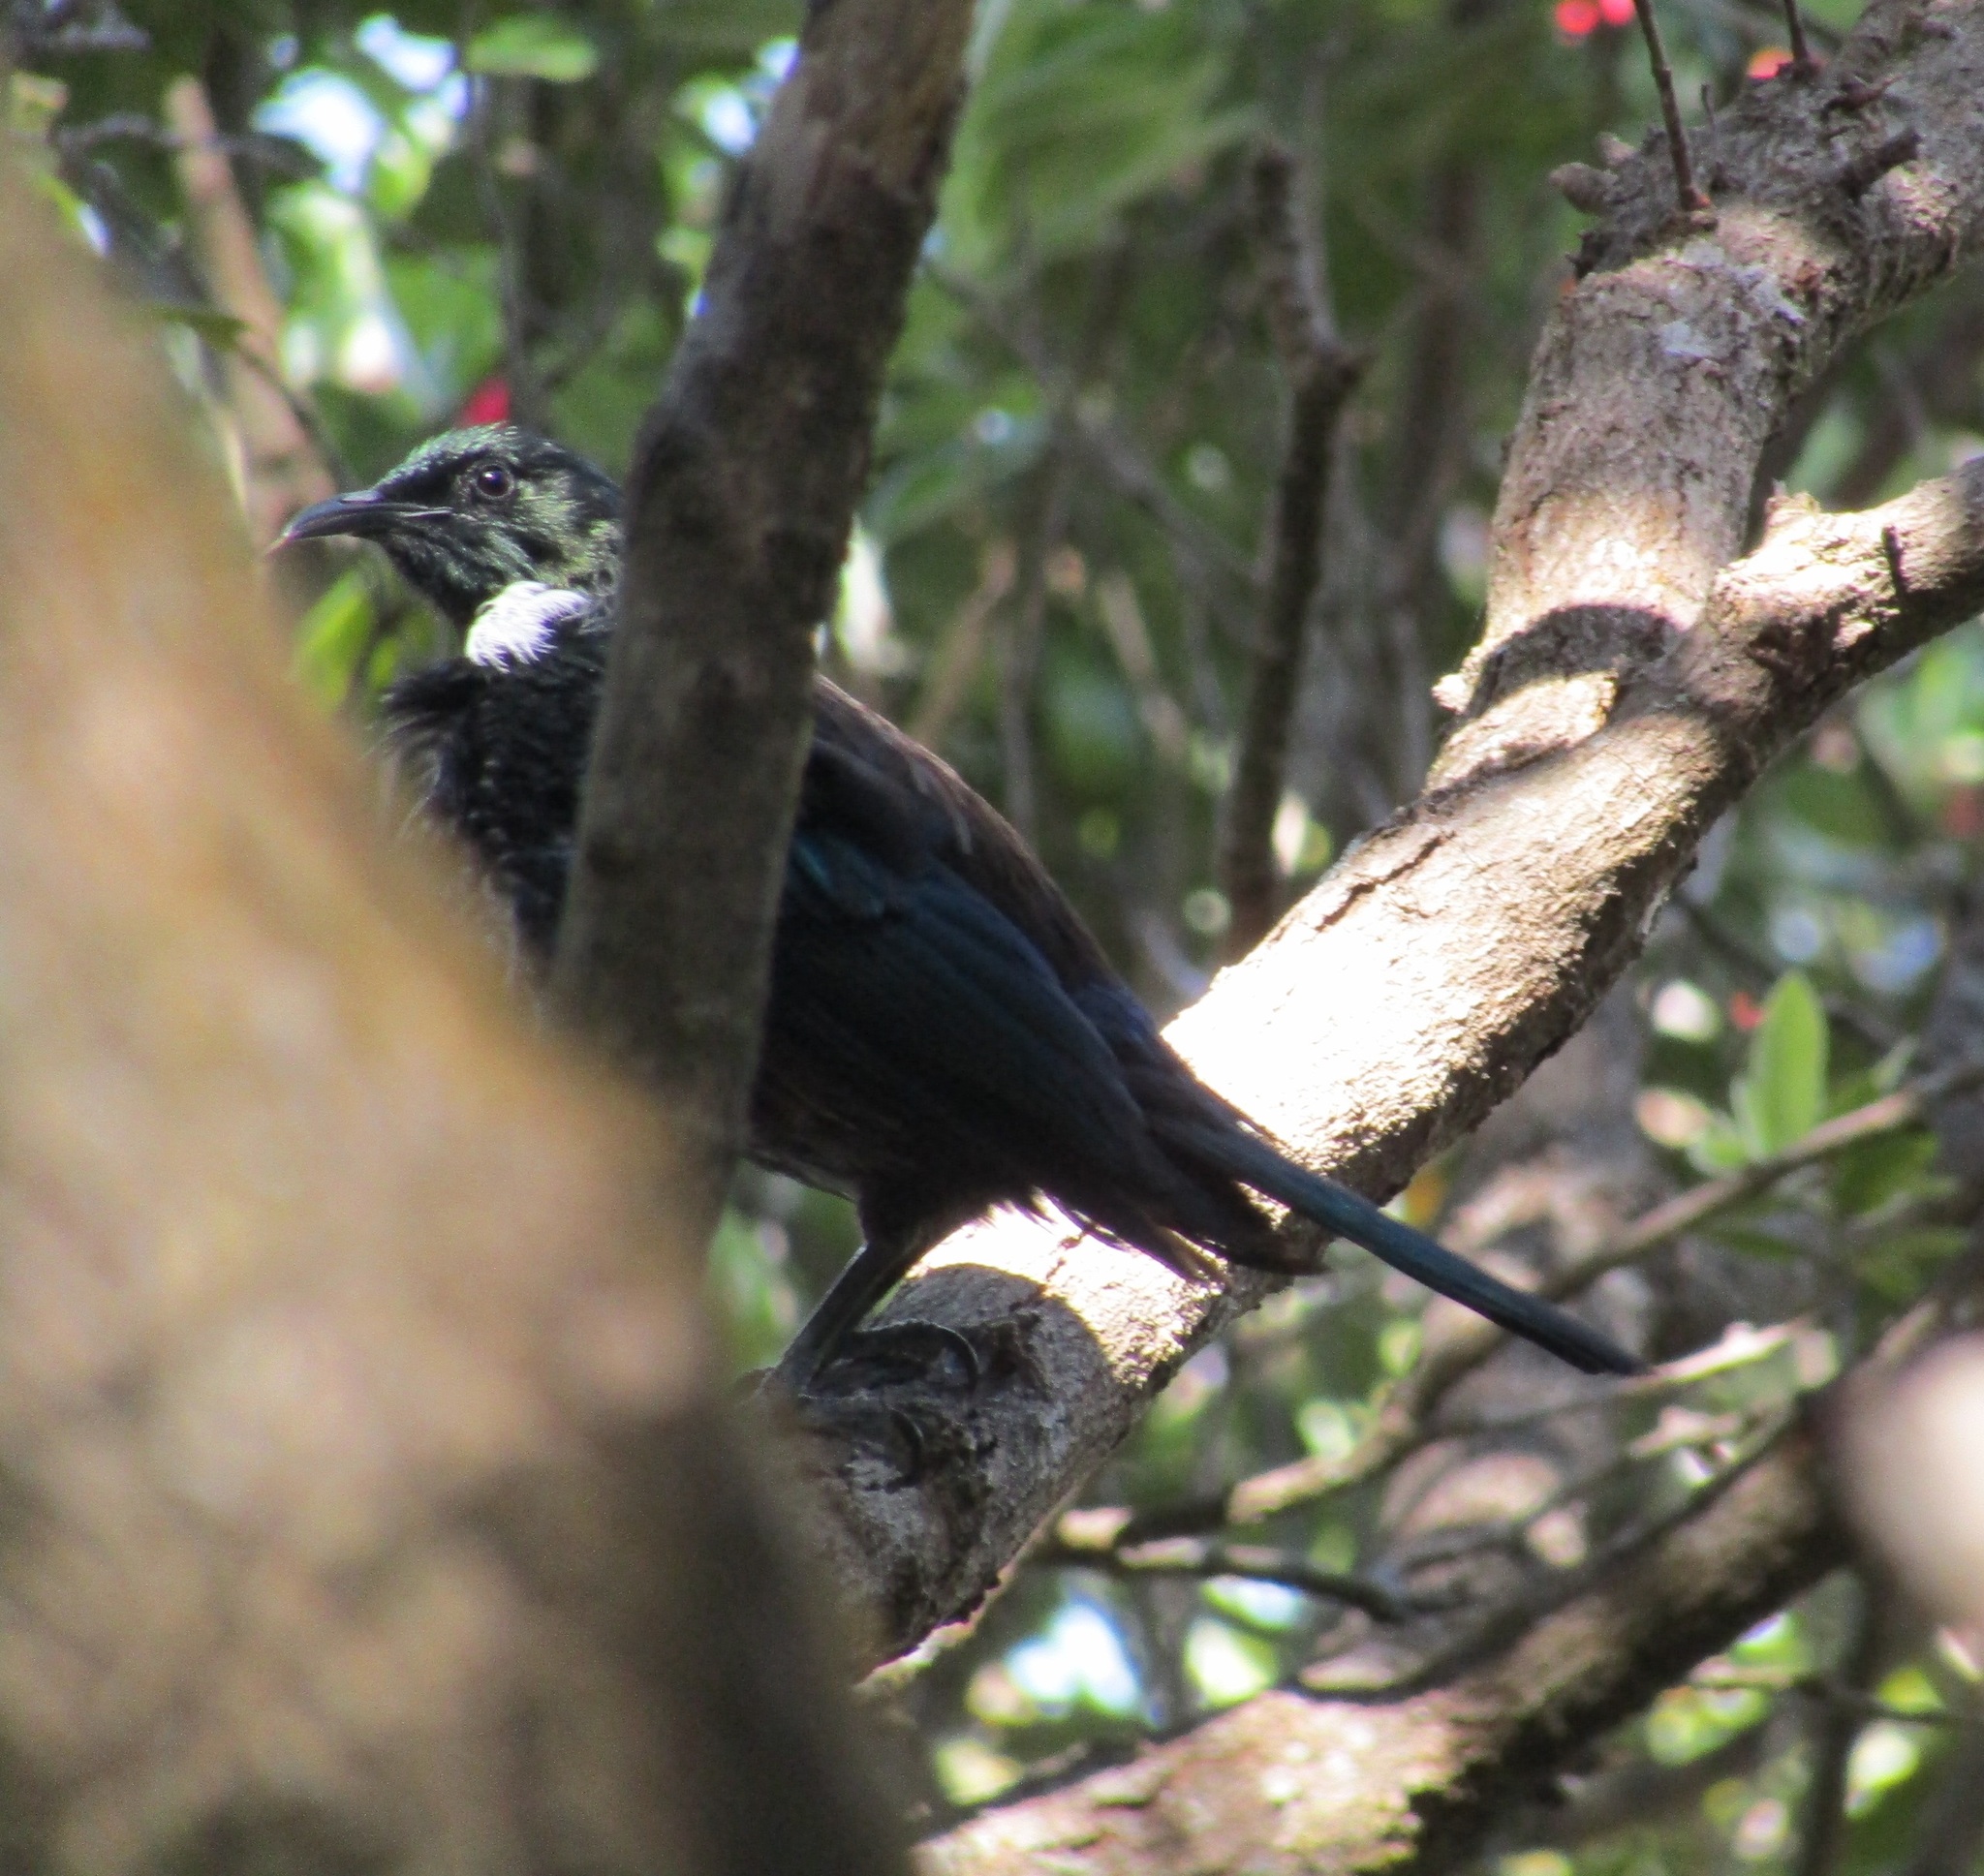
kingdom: Animalia
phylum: Chordata
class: Aves
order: Passeriformes
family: Meliphagidae
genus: Prosthemadera
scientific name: Prosthemadera novaeseelandiae
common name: Tui
